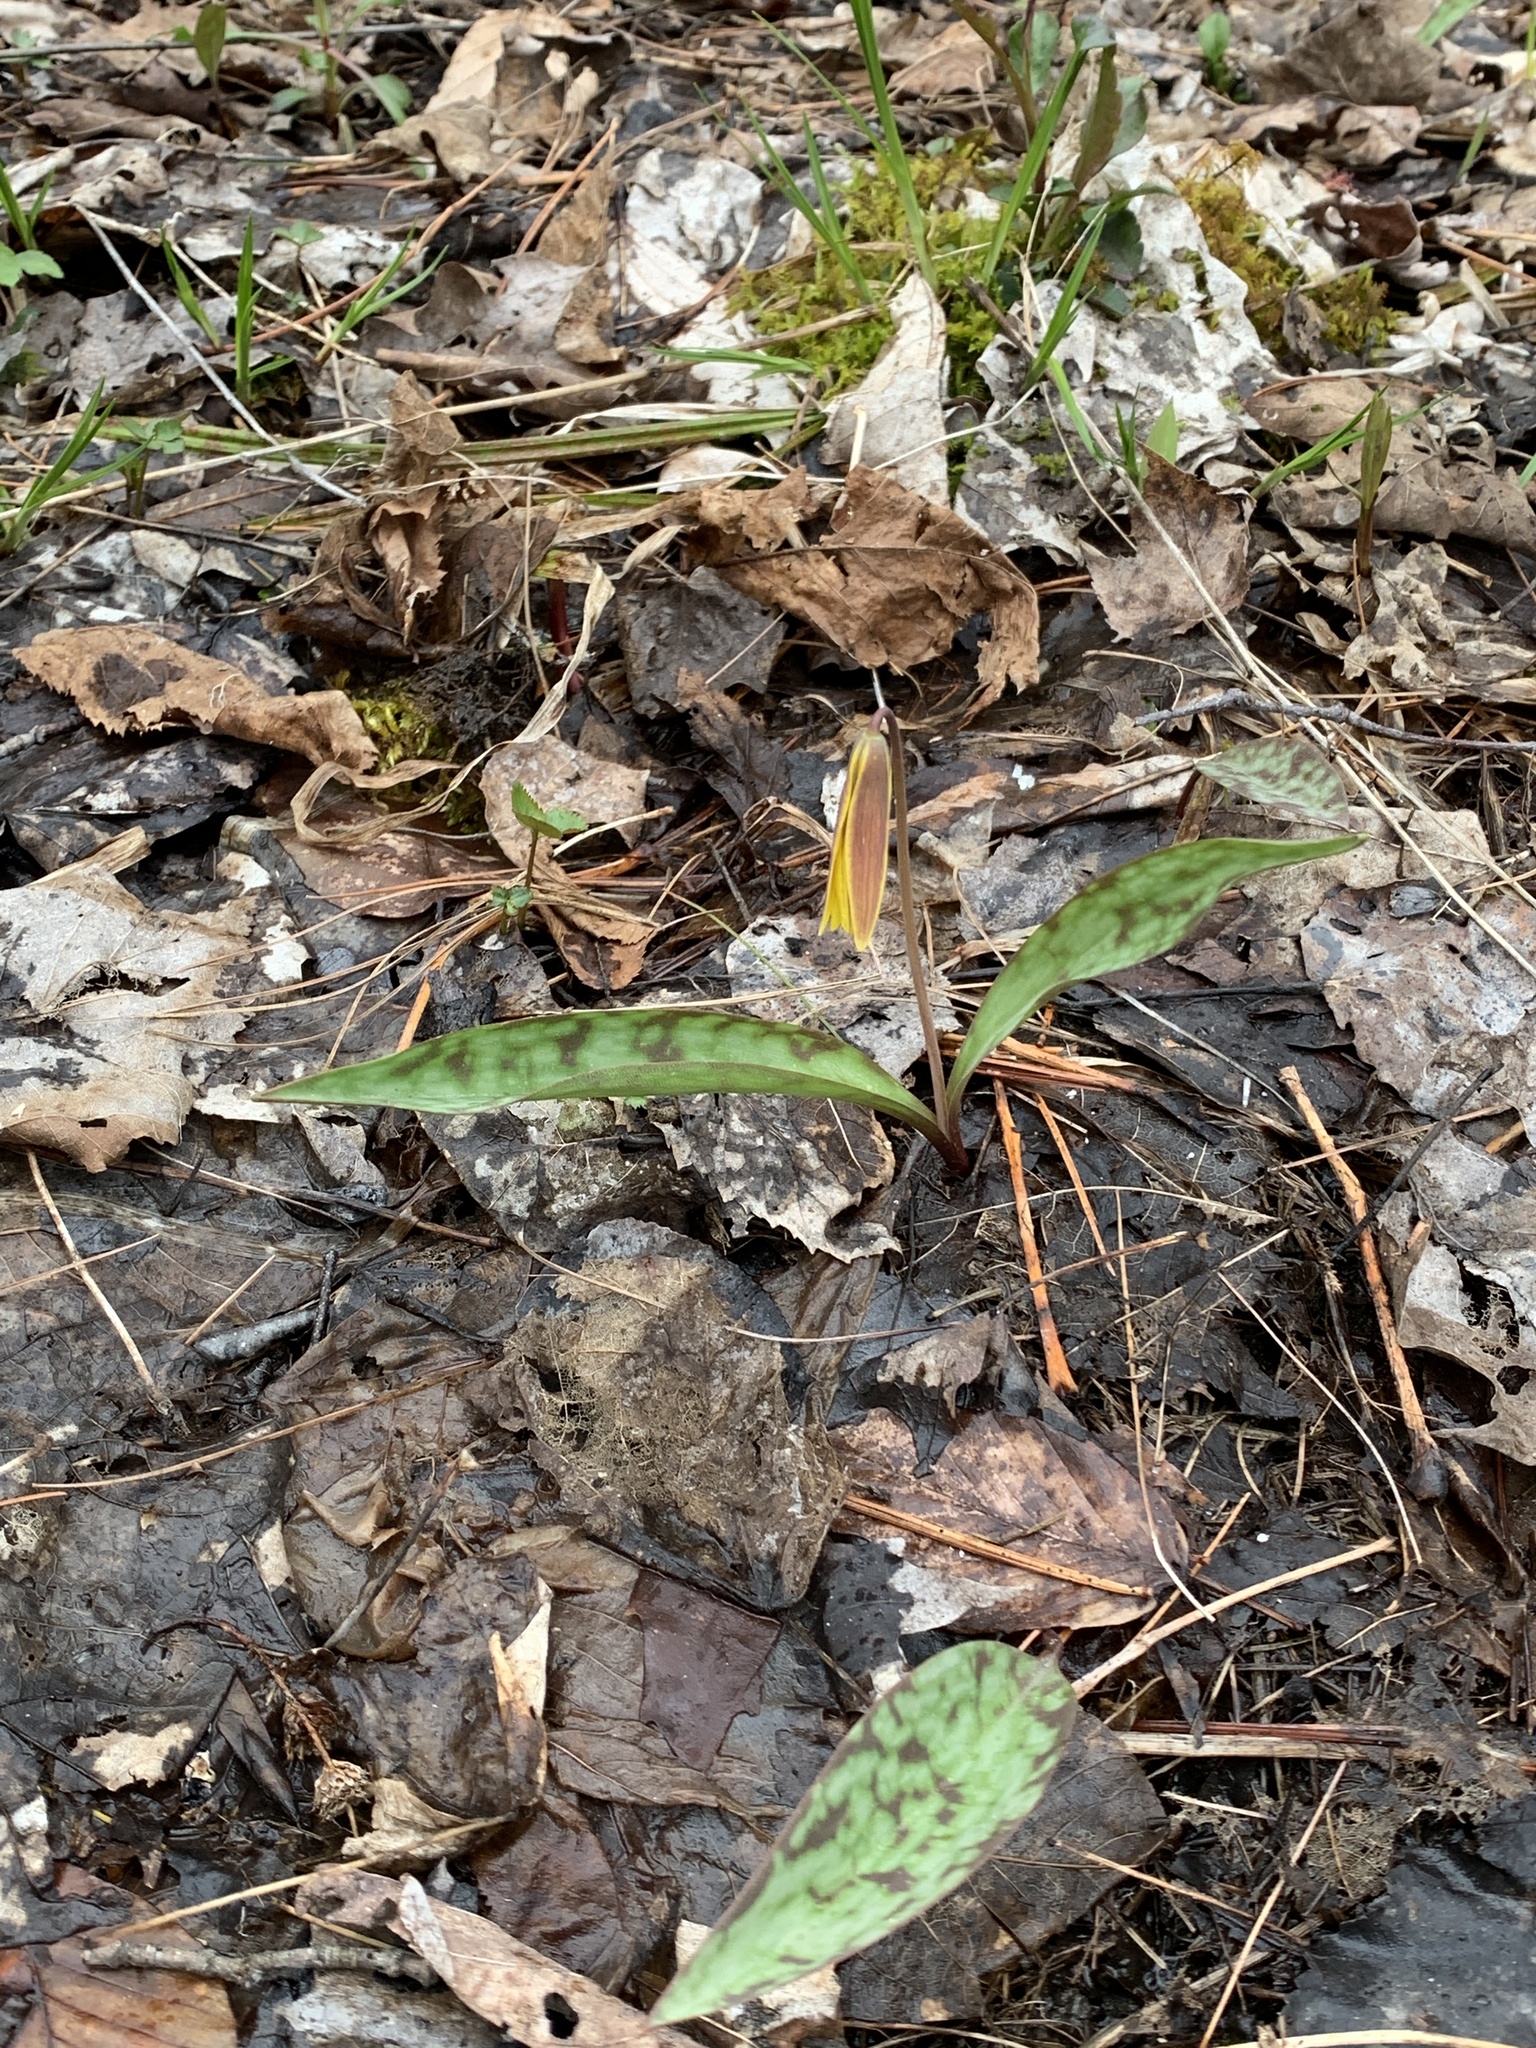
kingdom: Plantae
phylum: Tracheophyta
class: Liliopsida
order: Liliales
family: Liliaceae
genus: Erythronium
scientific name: Erythronium americanum
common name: Yellow adder's-tongue
